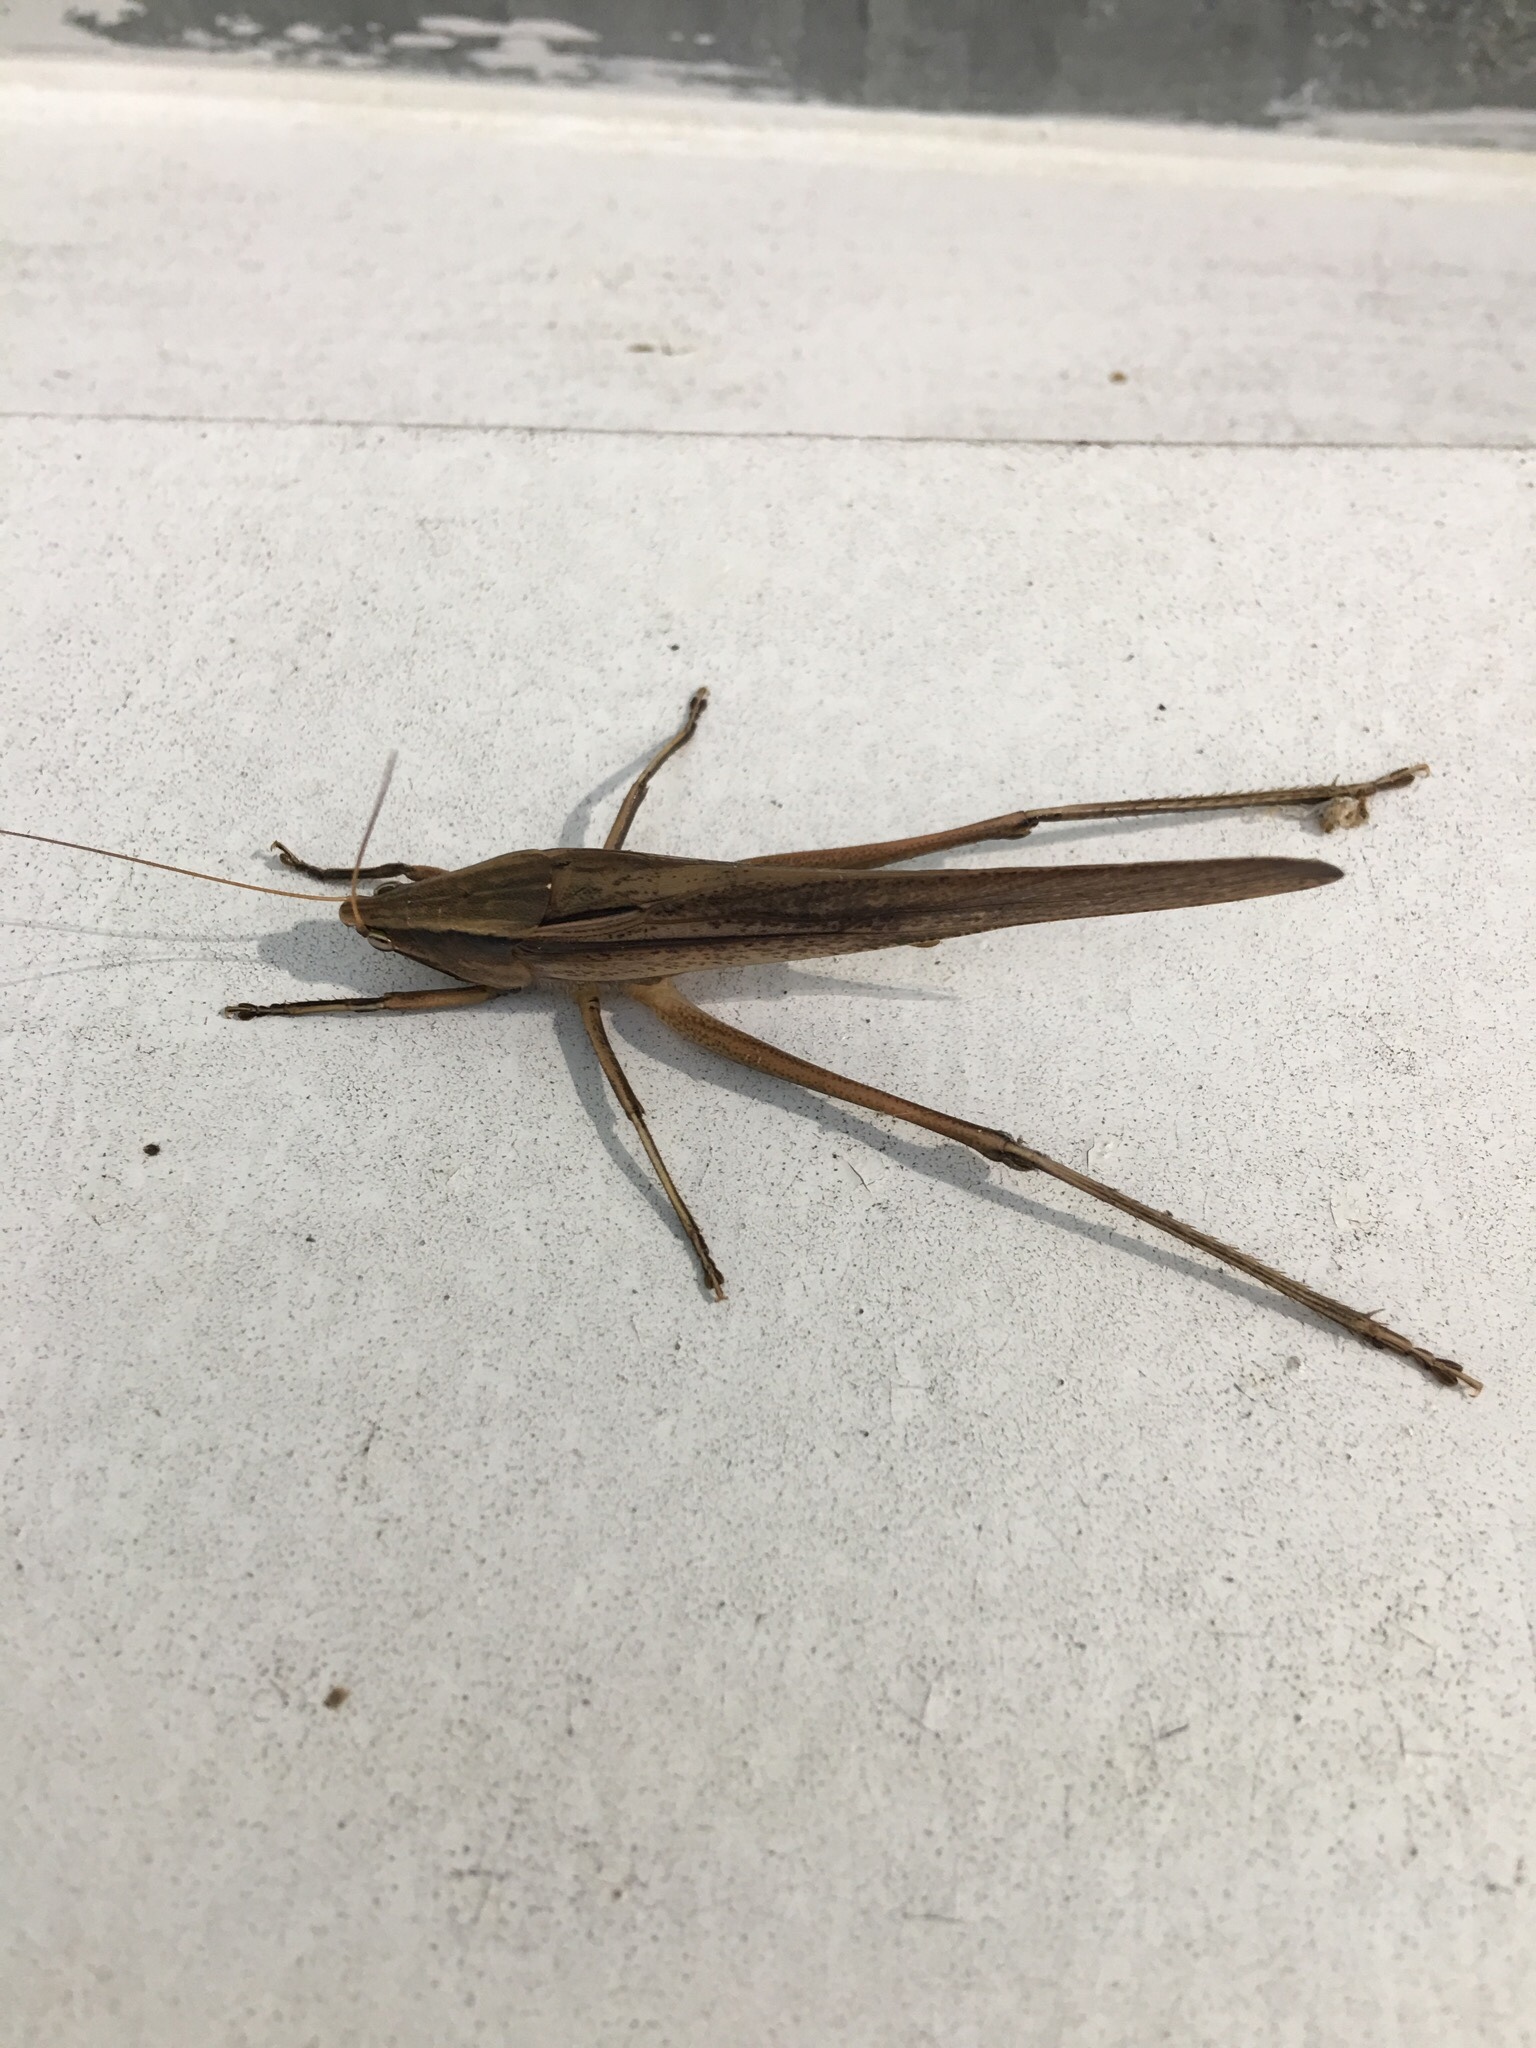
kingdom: Animalia
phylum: Arthropoda
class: Insecta
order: Orthoptera
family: Tettigoniidae
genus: Neoconocephalus
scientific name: Neoconocephalus triops
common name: Broad-tipped conehead
